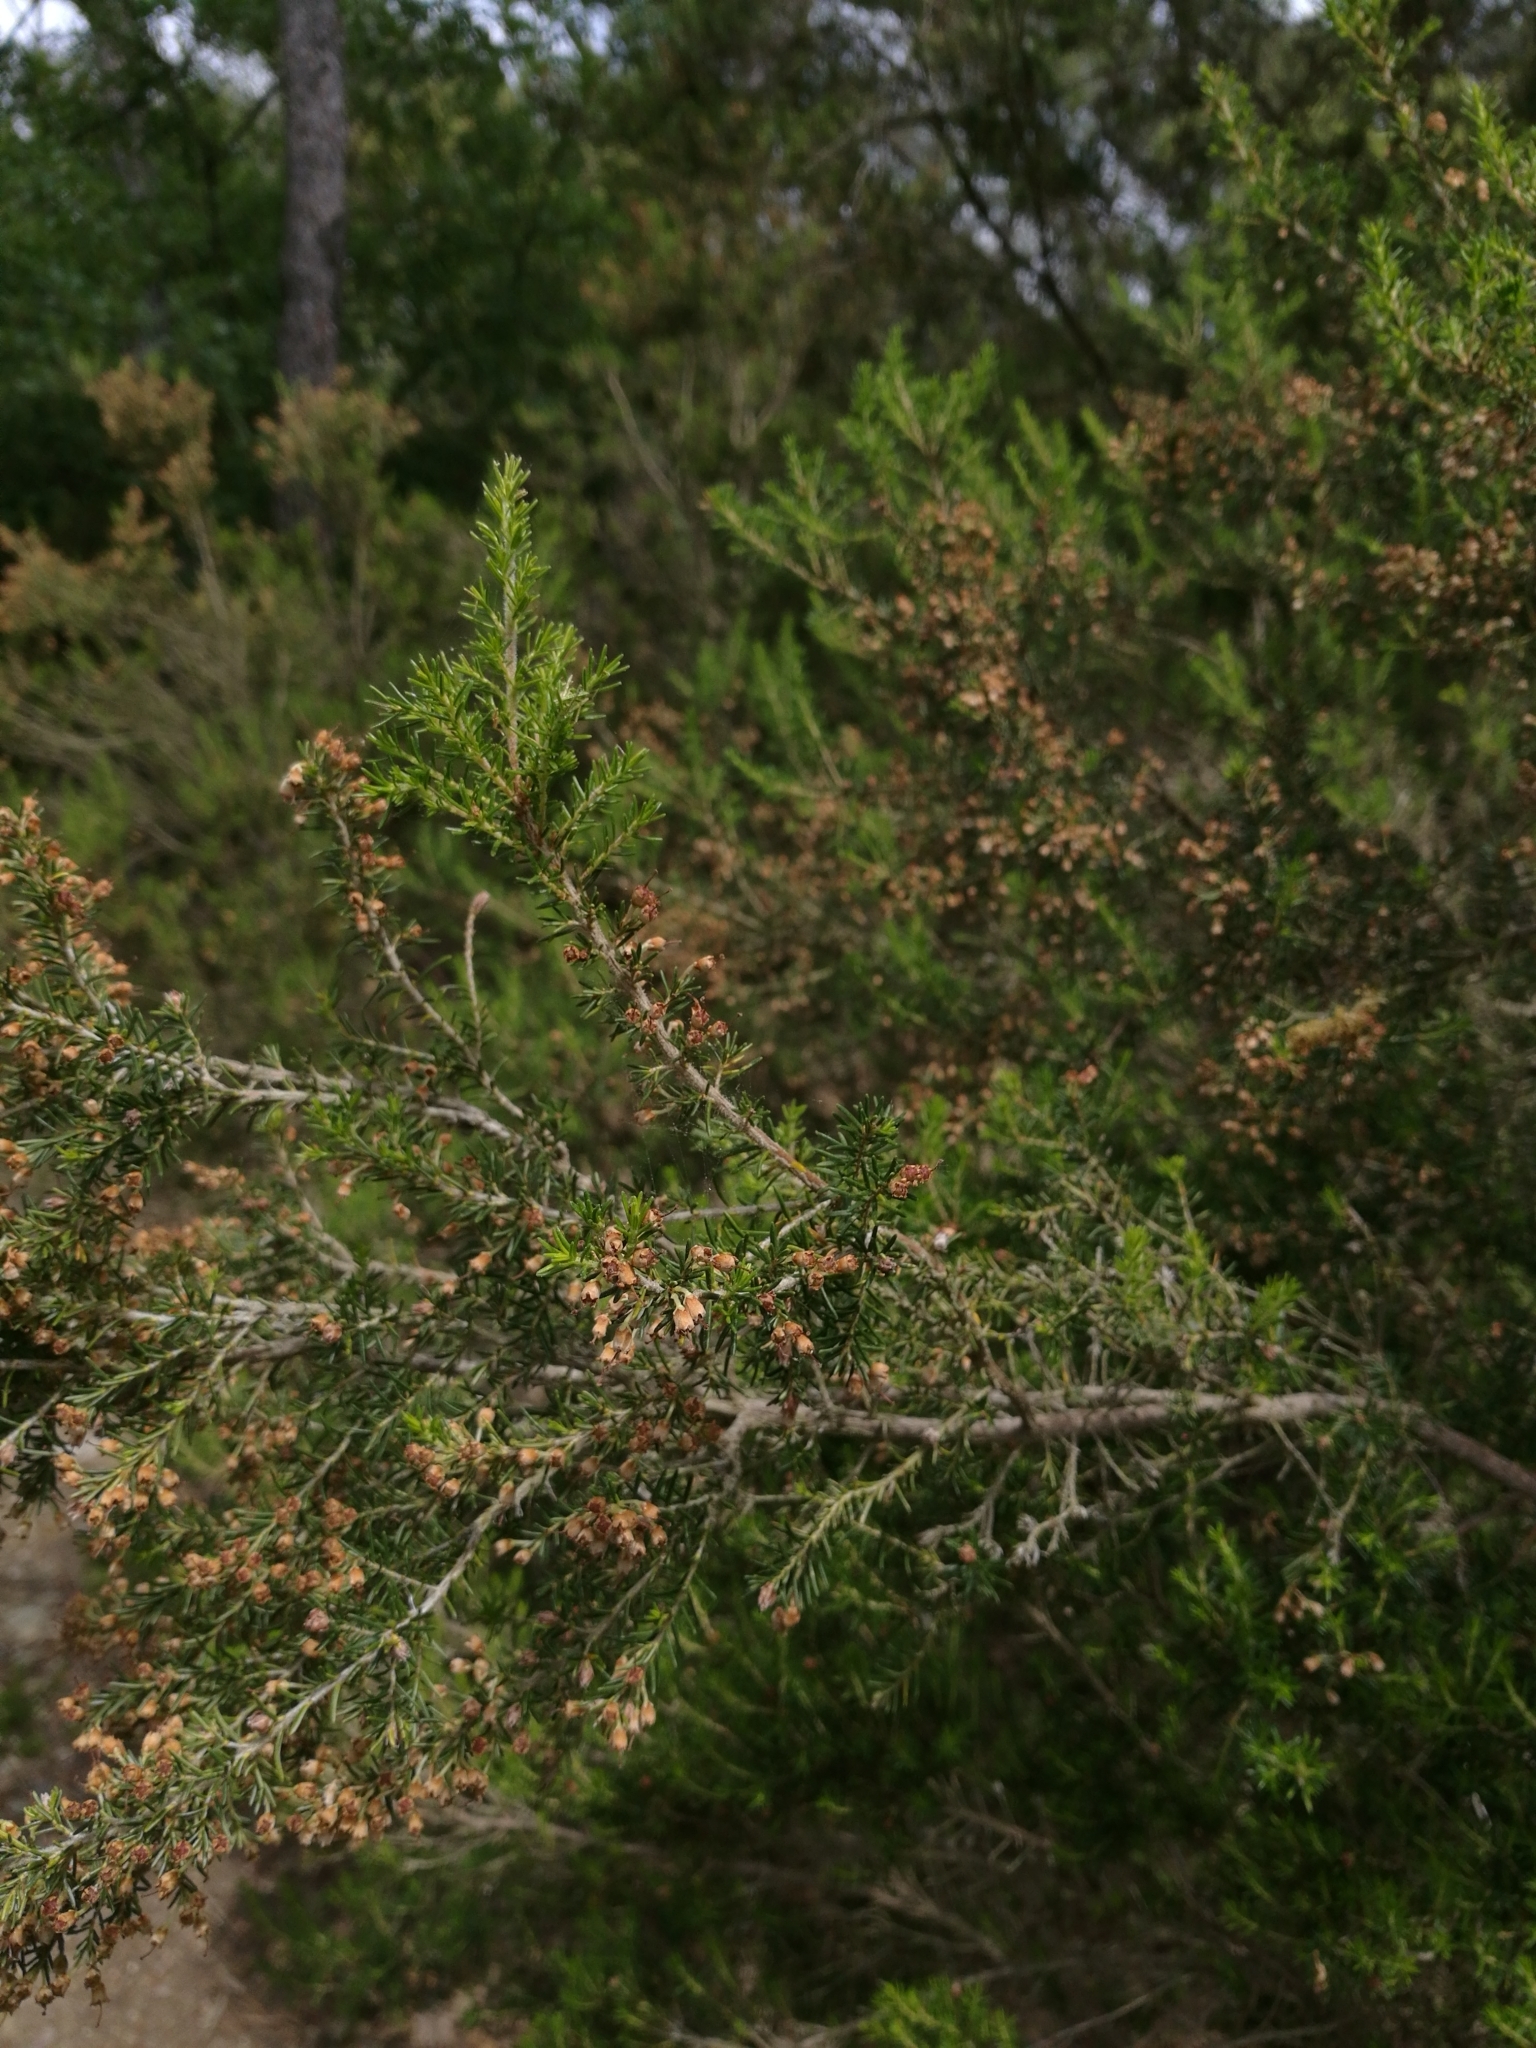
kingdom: Plantae
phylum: Tracheophyta
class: Magnoliopsida
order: Ericales
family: Ericaceae
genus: Erica
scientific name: Erica arborea
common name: Tree heath
